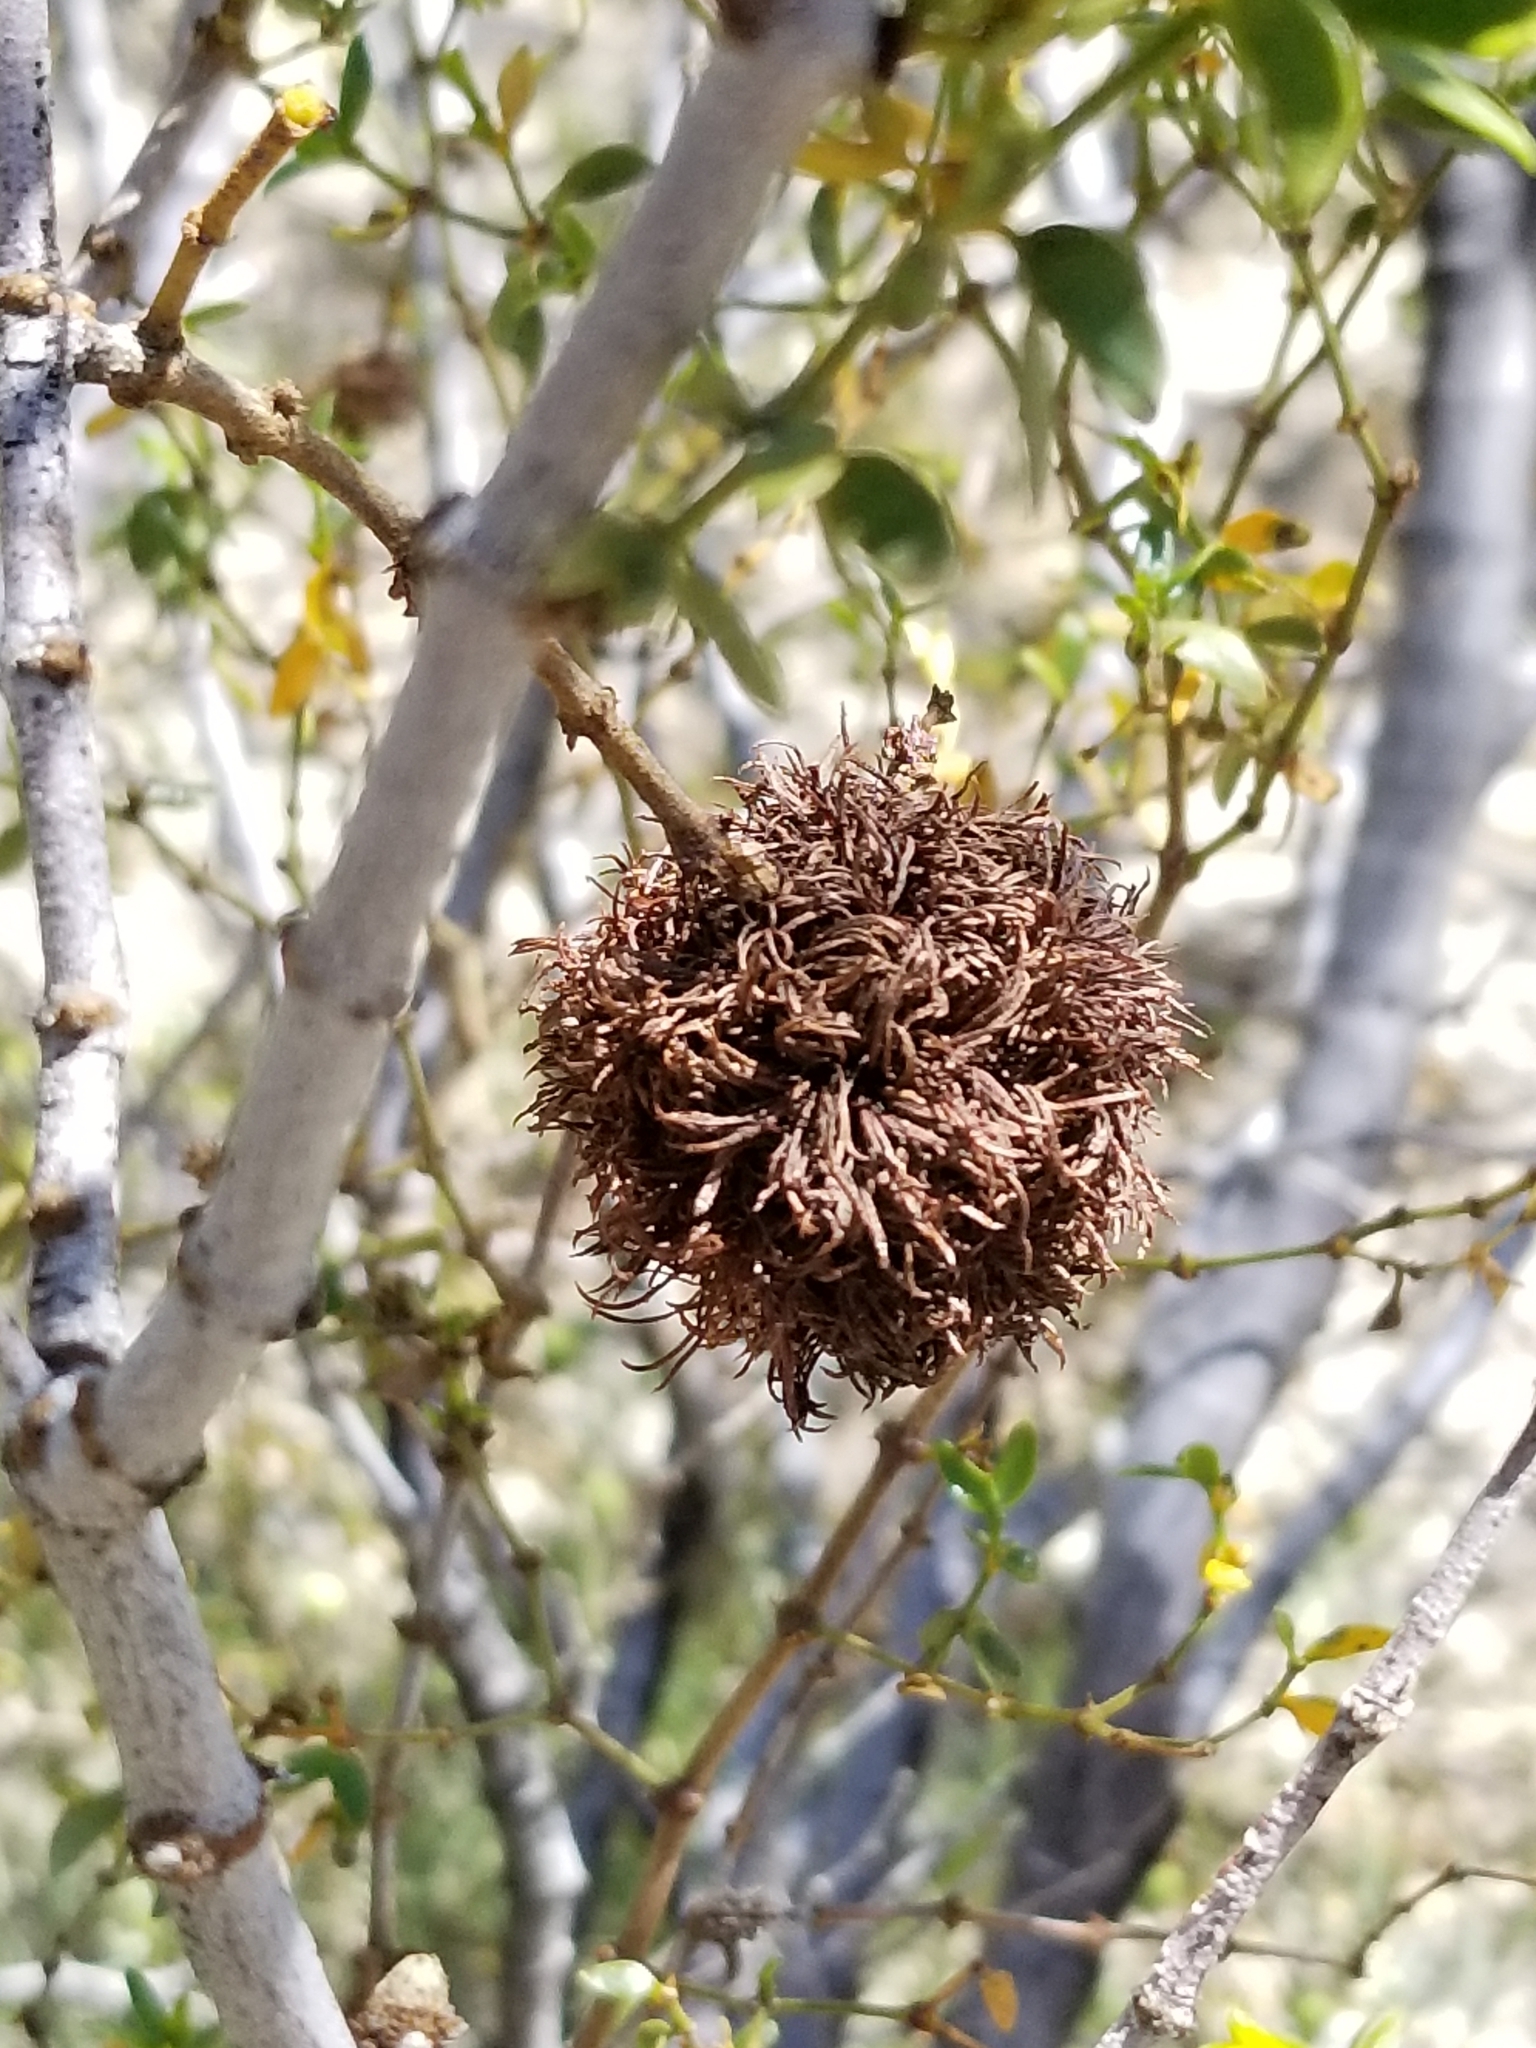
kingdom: Animalia
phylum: Arthropoda
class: Insecta
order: Diptera
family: Cecidomyiidae
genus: Asphondylia
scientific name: Asphondylia auripila
